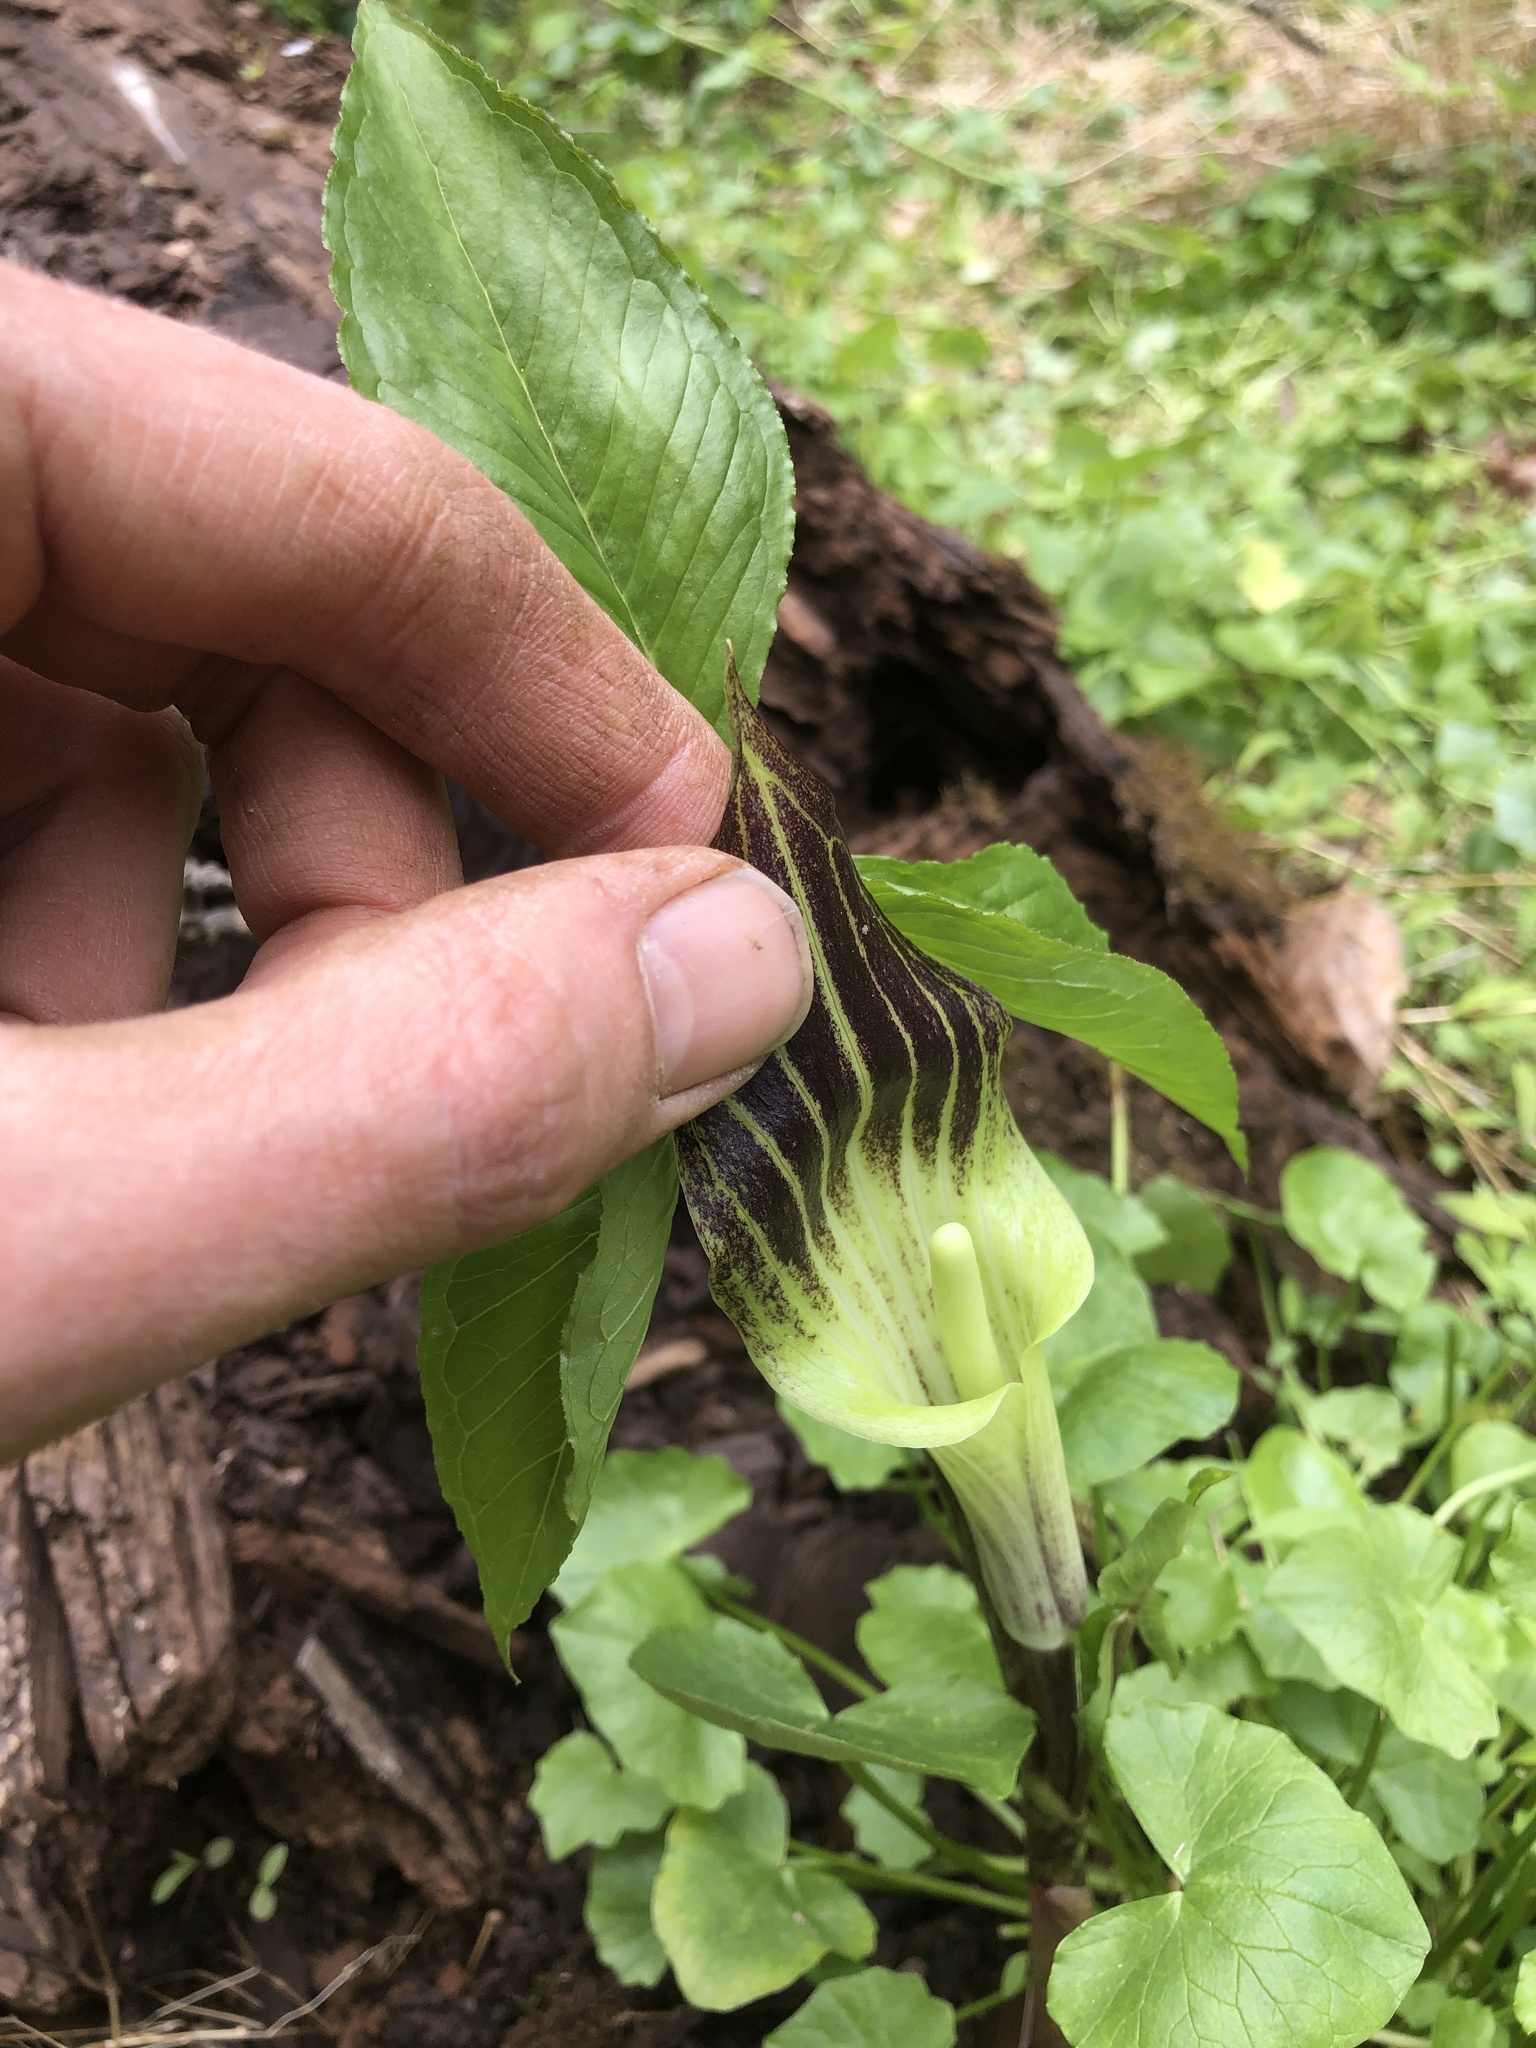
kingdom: Plantae
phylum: Tracheophyta
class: Liliopsida
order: Alismatales
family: Araceae
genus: Arisaema
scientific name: Arisaema triphyllum
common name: Jack-in-the-pulpit
